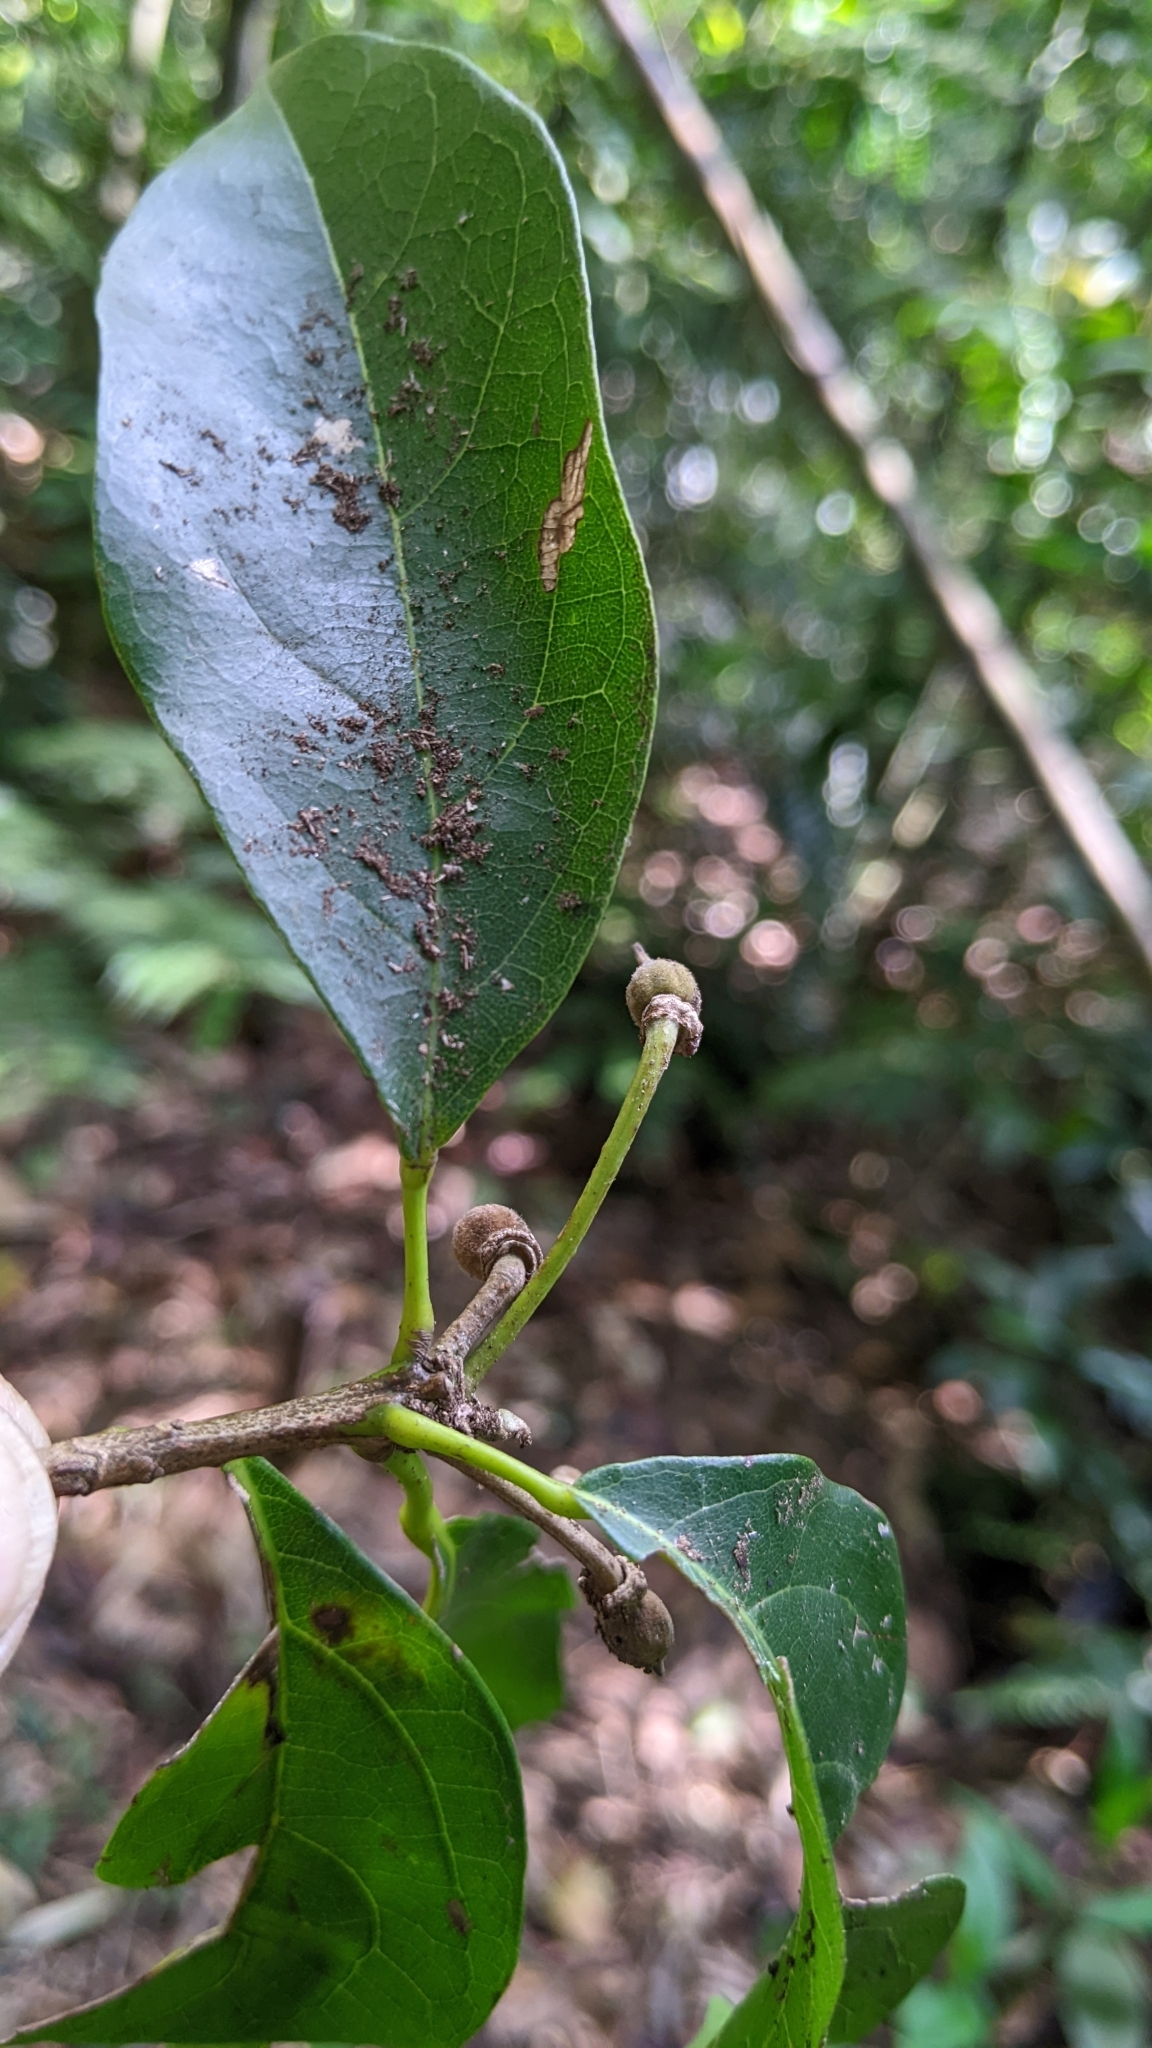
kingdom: Plantae
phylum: Tracheophyta
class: Magnoliopsida
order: Oxalidales
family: Elaeocarpaceae
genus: Sloanea
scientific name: Sloanea dasycarpa
